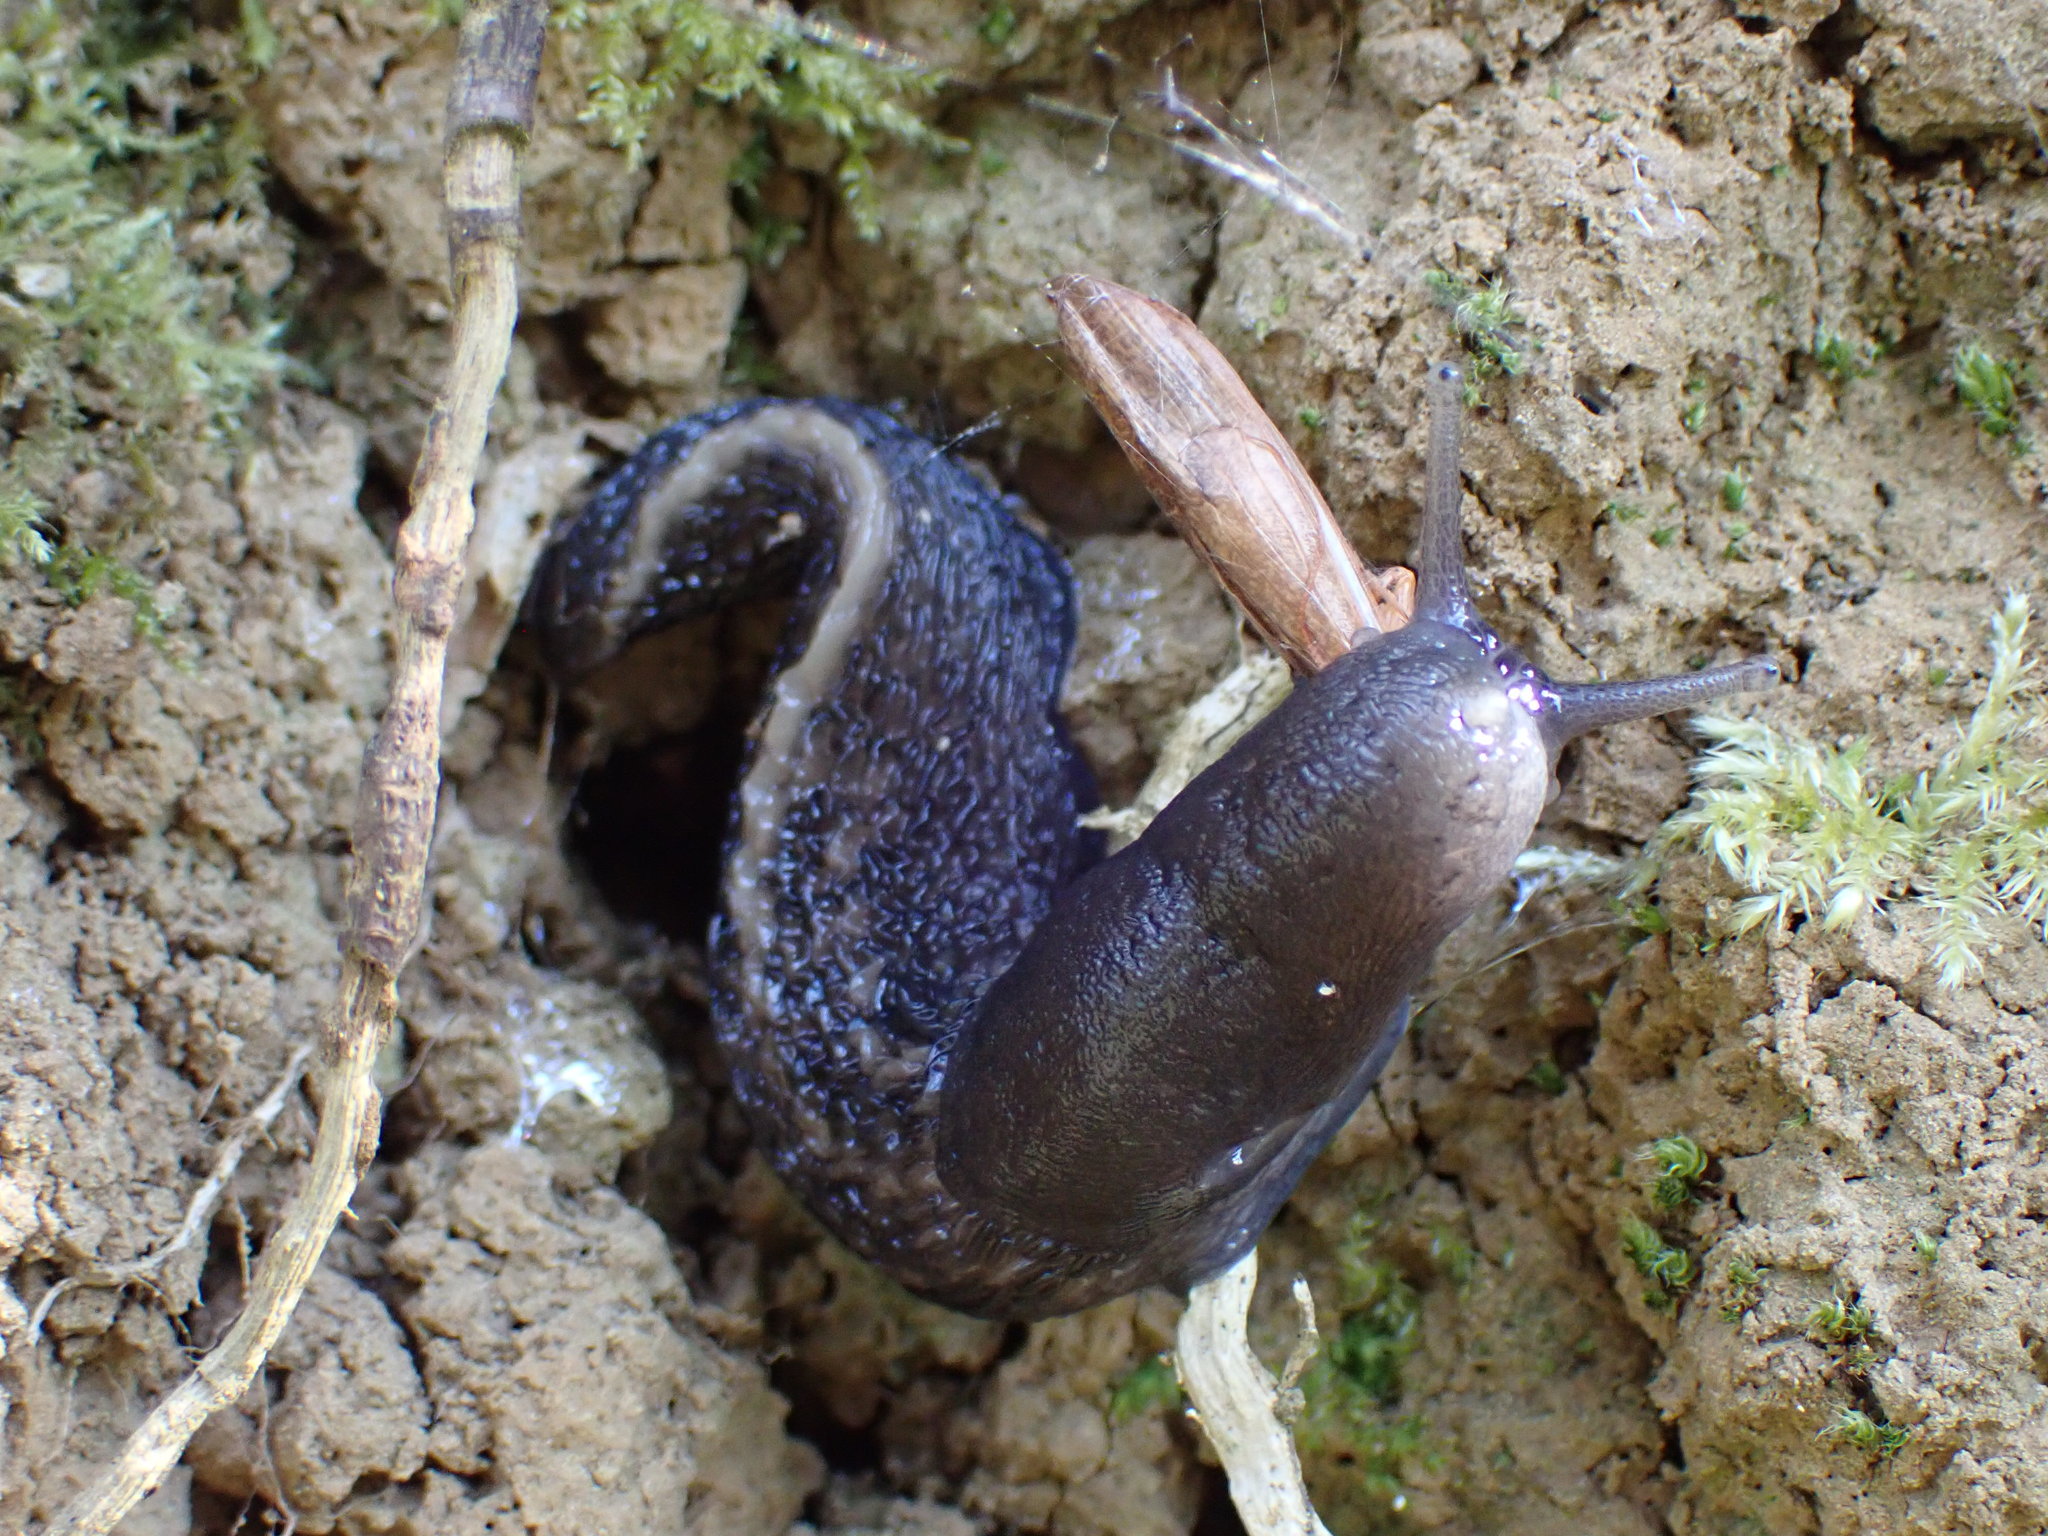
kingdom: Animalia
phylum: Mollusca
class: Gastropoda
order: Stylommatophora
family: Limacidae
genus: Limax
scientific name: Limax cinereoniger
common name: Ash-black slug
